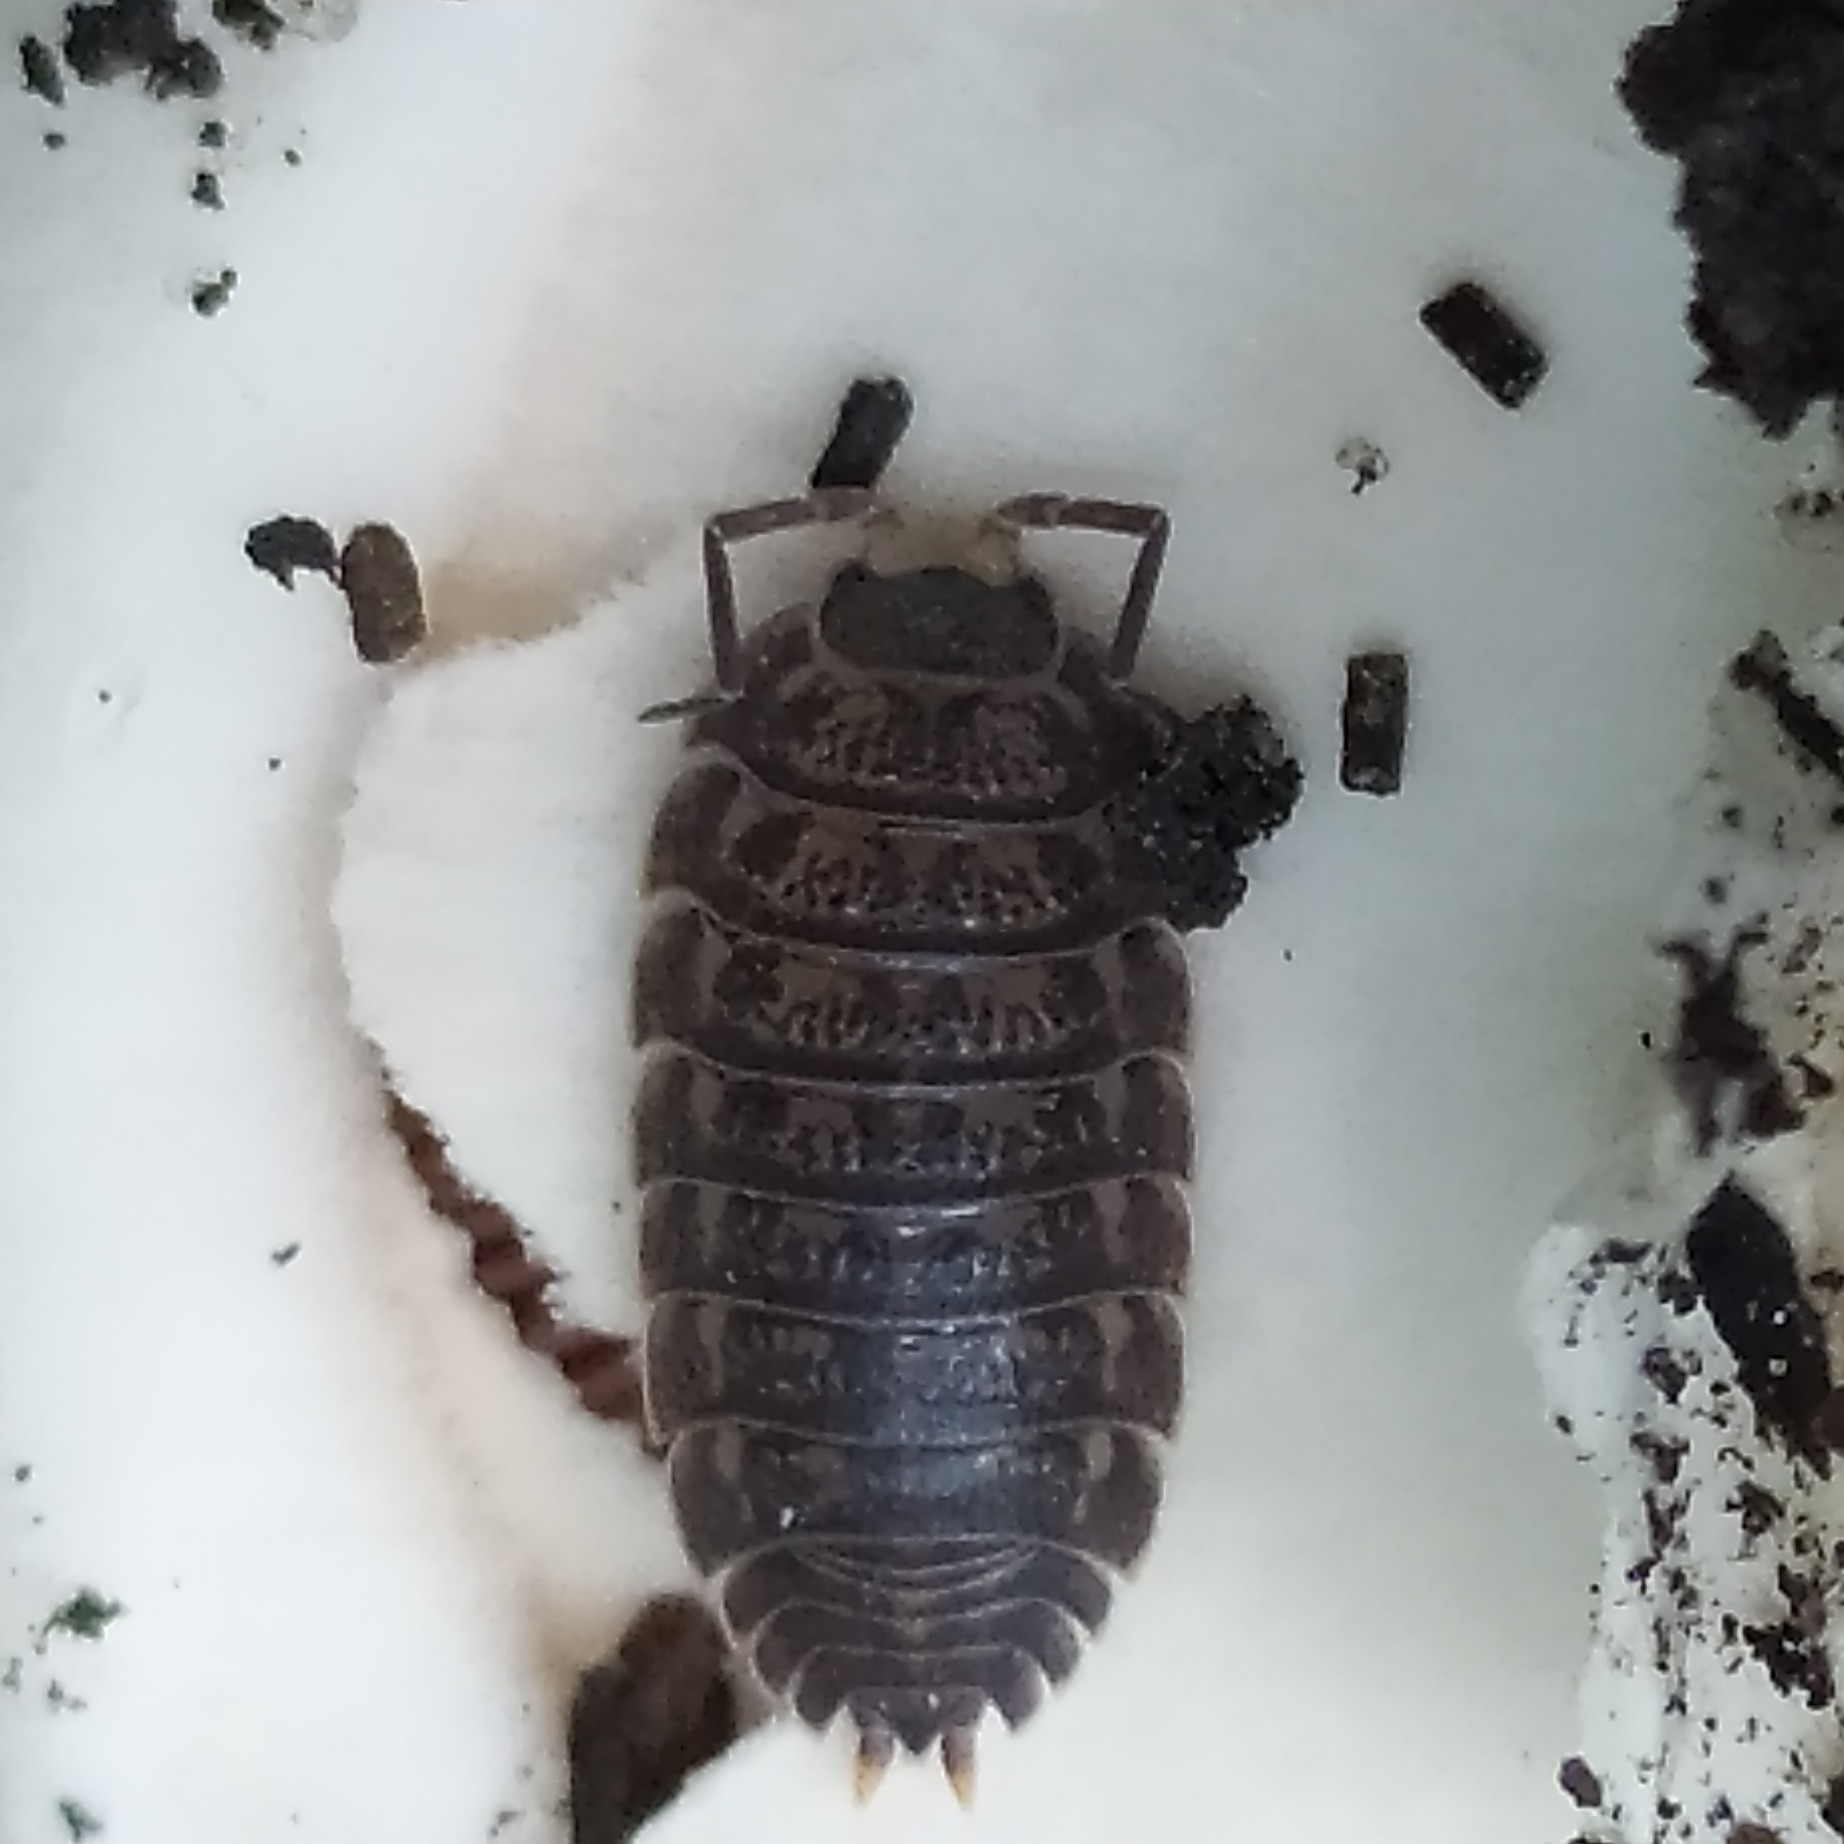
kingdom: Animalia
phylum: Arthropoda
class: Malacostraca
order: Isopoda
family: Trachelipodidae
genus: Trachelipus
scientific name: Trachelipus rathkii
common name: Isopod
